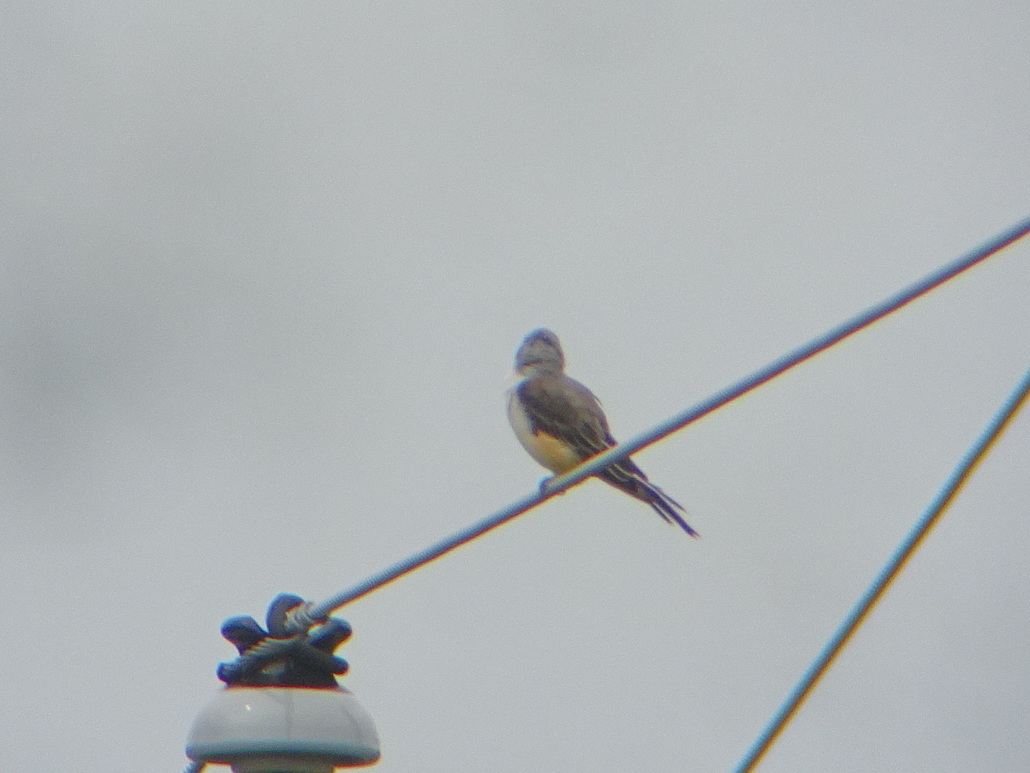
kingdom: Animalia
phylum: Chordata
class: Aves
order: Passeriformes
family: Tyrannidae
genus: Tyrannus
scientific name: Tyrannus forficatus
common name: Scissor-tailed flycatcher
